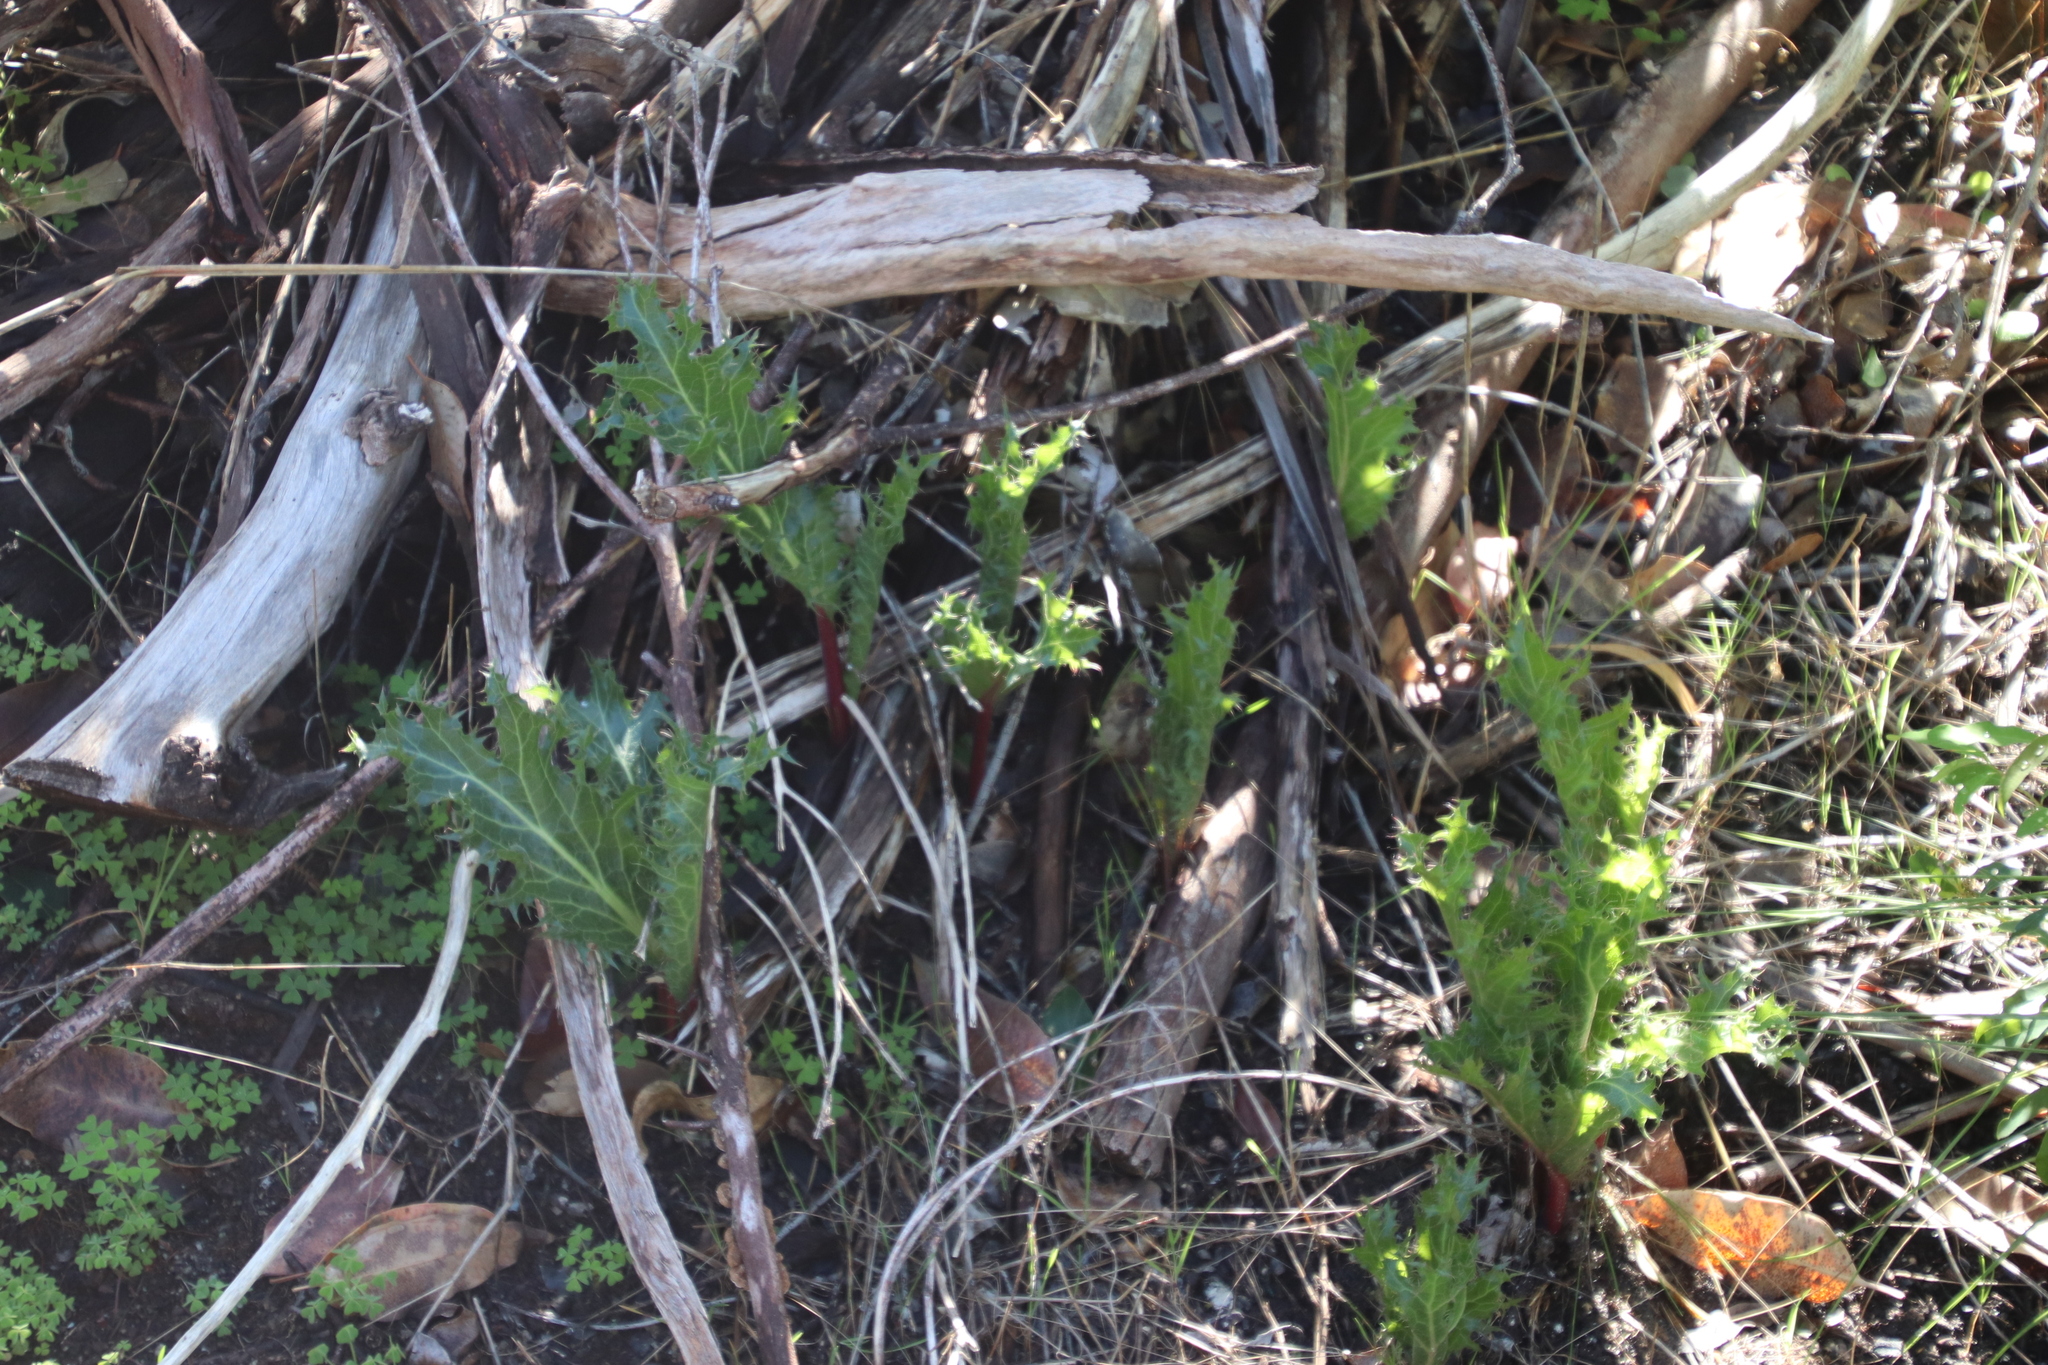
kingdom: Plantae
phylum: Tracheophyta
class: Magnoliopsida
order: Apiales
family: Apiaceae
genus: Lichtensteinia
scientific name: Lichtensteinia lacera
